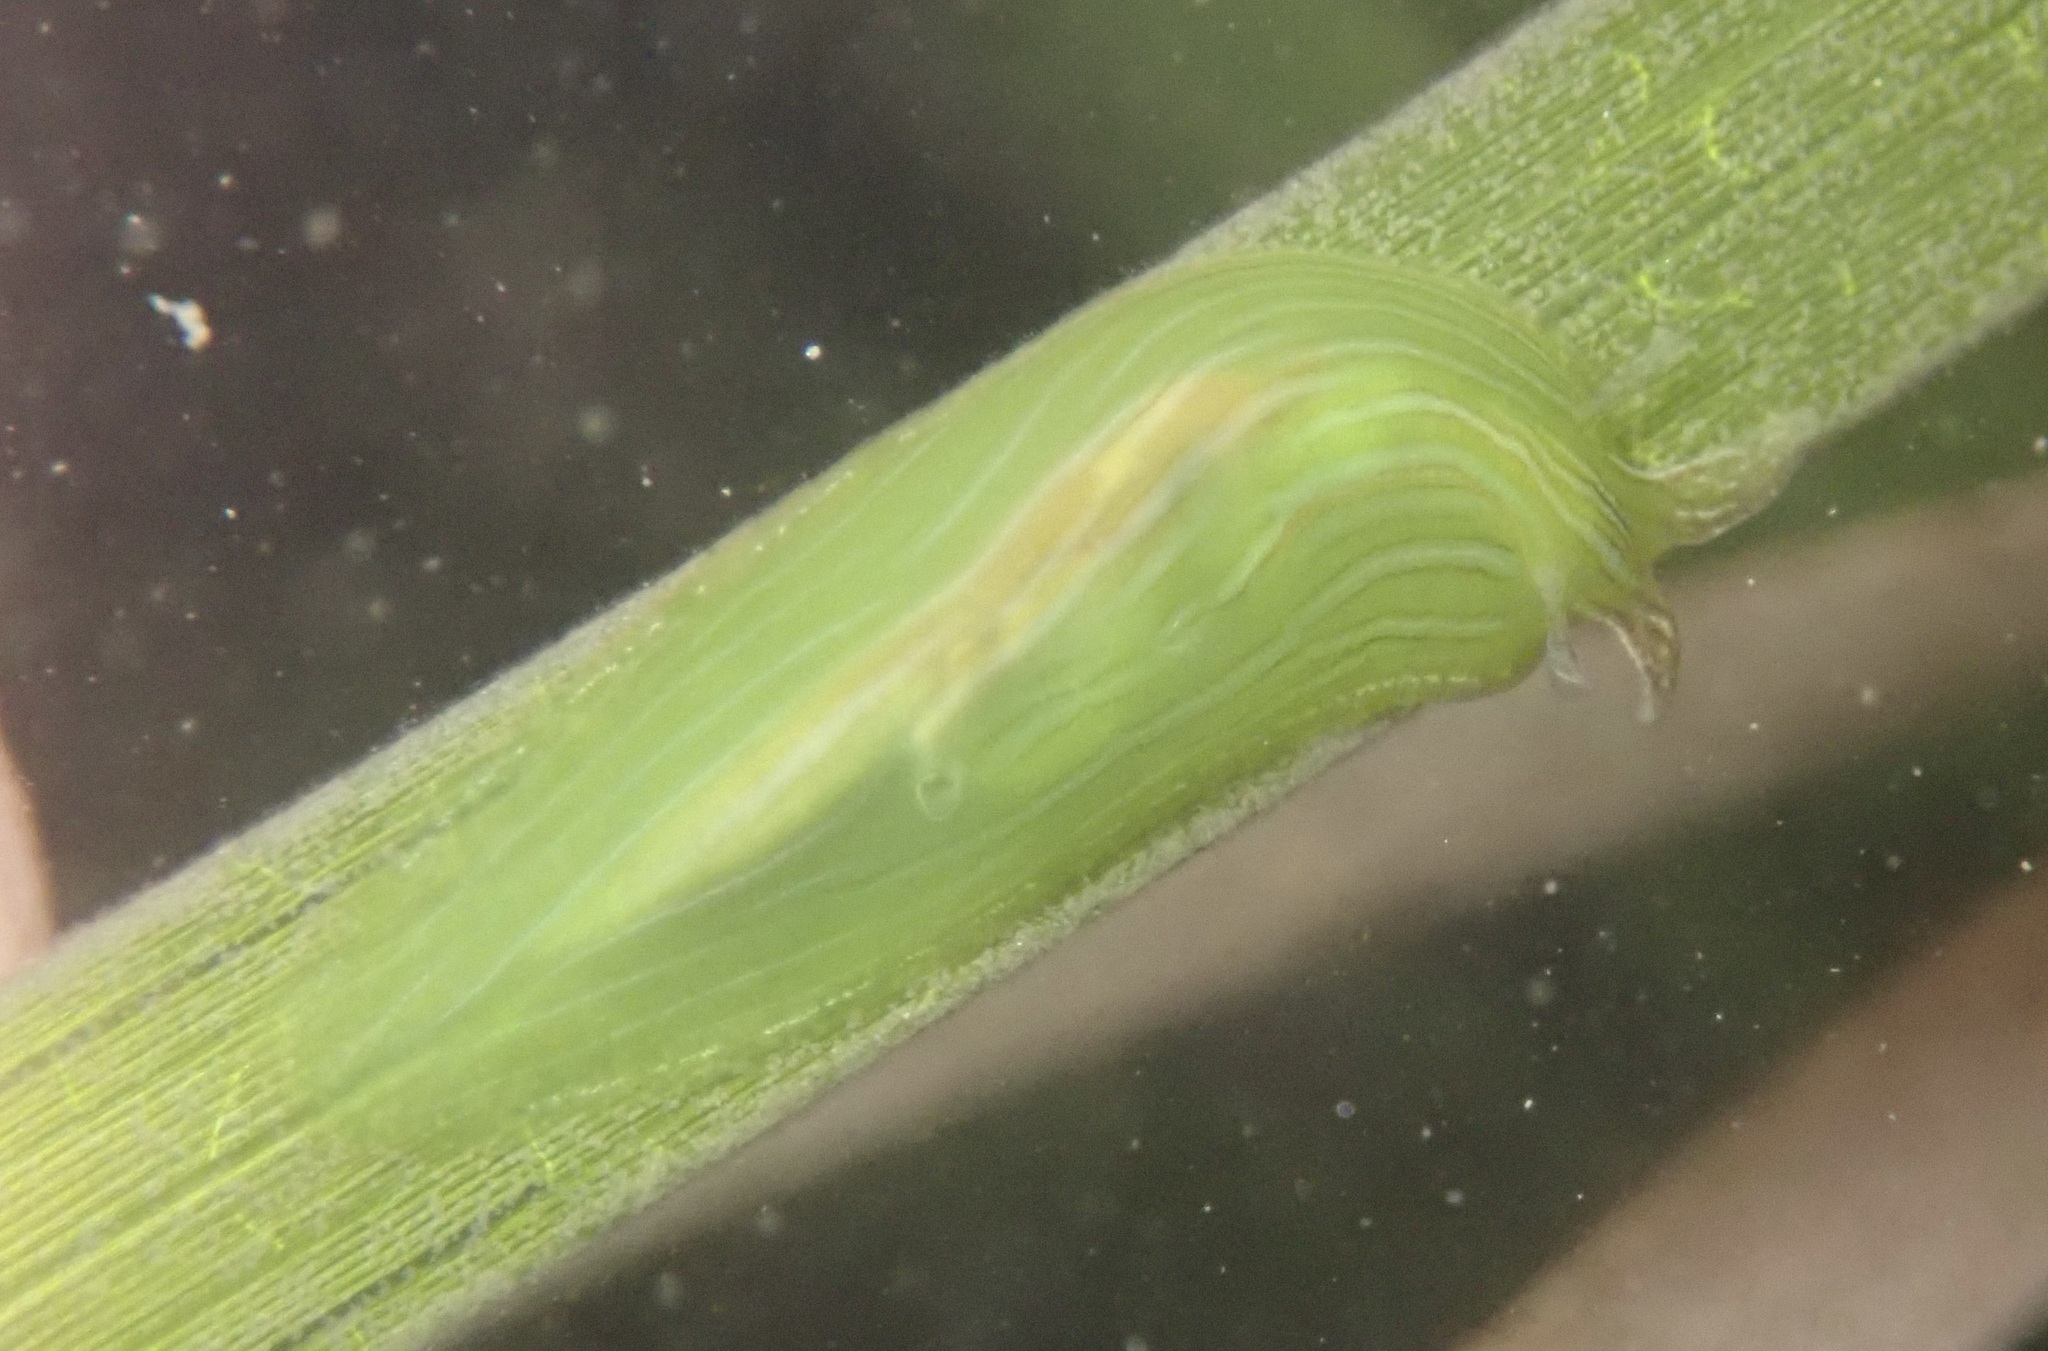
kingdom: Animalia
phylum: Mollusca
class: Gastropoda
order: Aplysiida
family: Aplysiidae
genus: Phyllaplysia
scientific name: Phyllaplysia taylori
